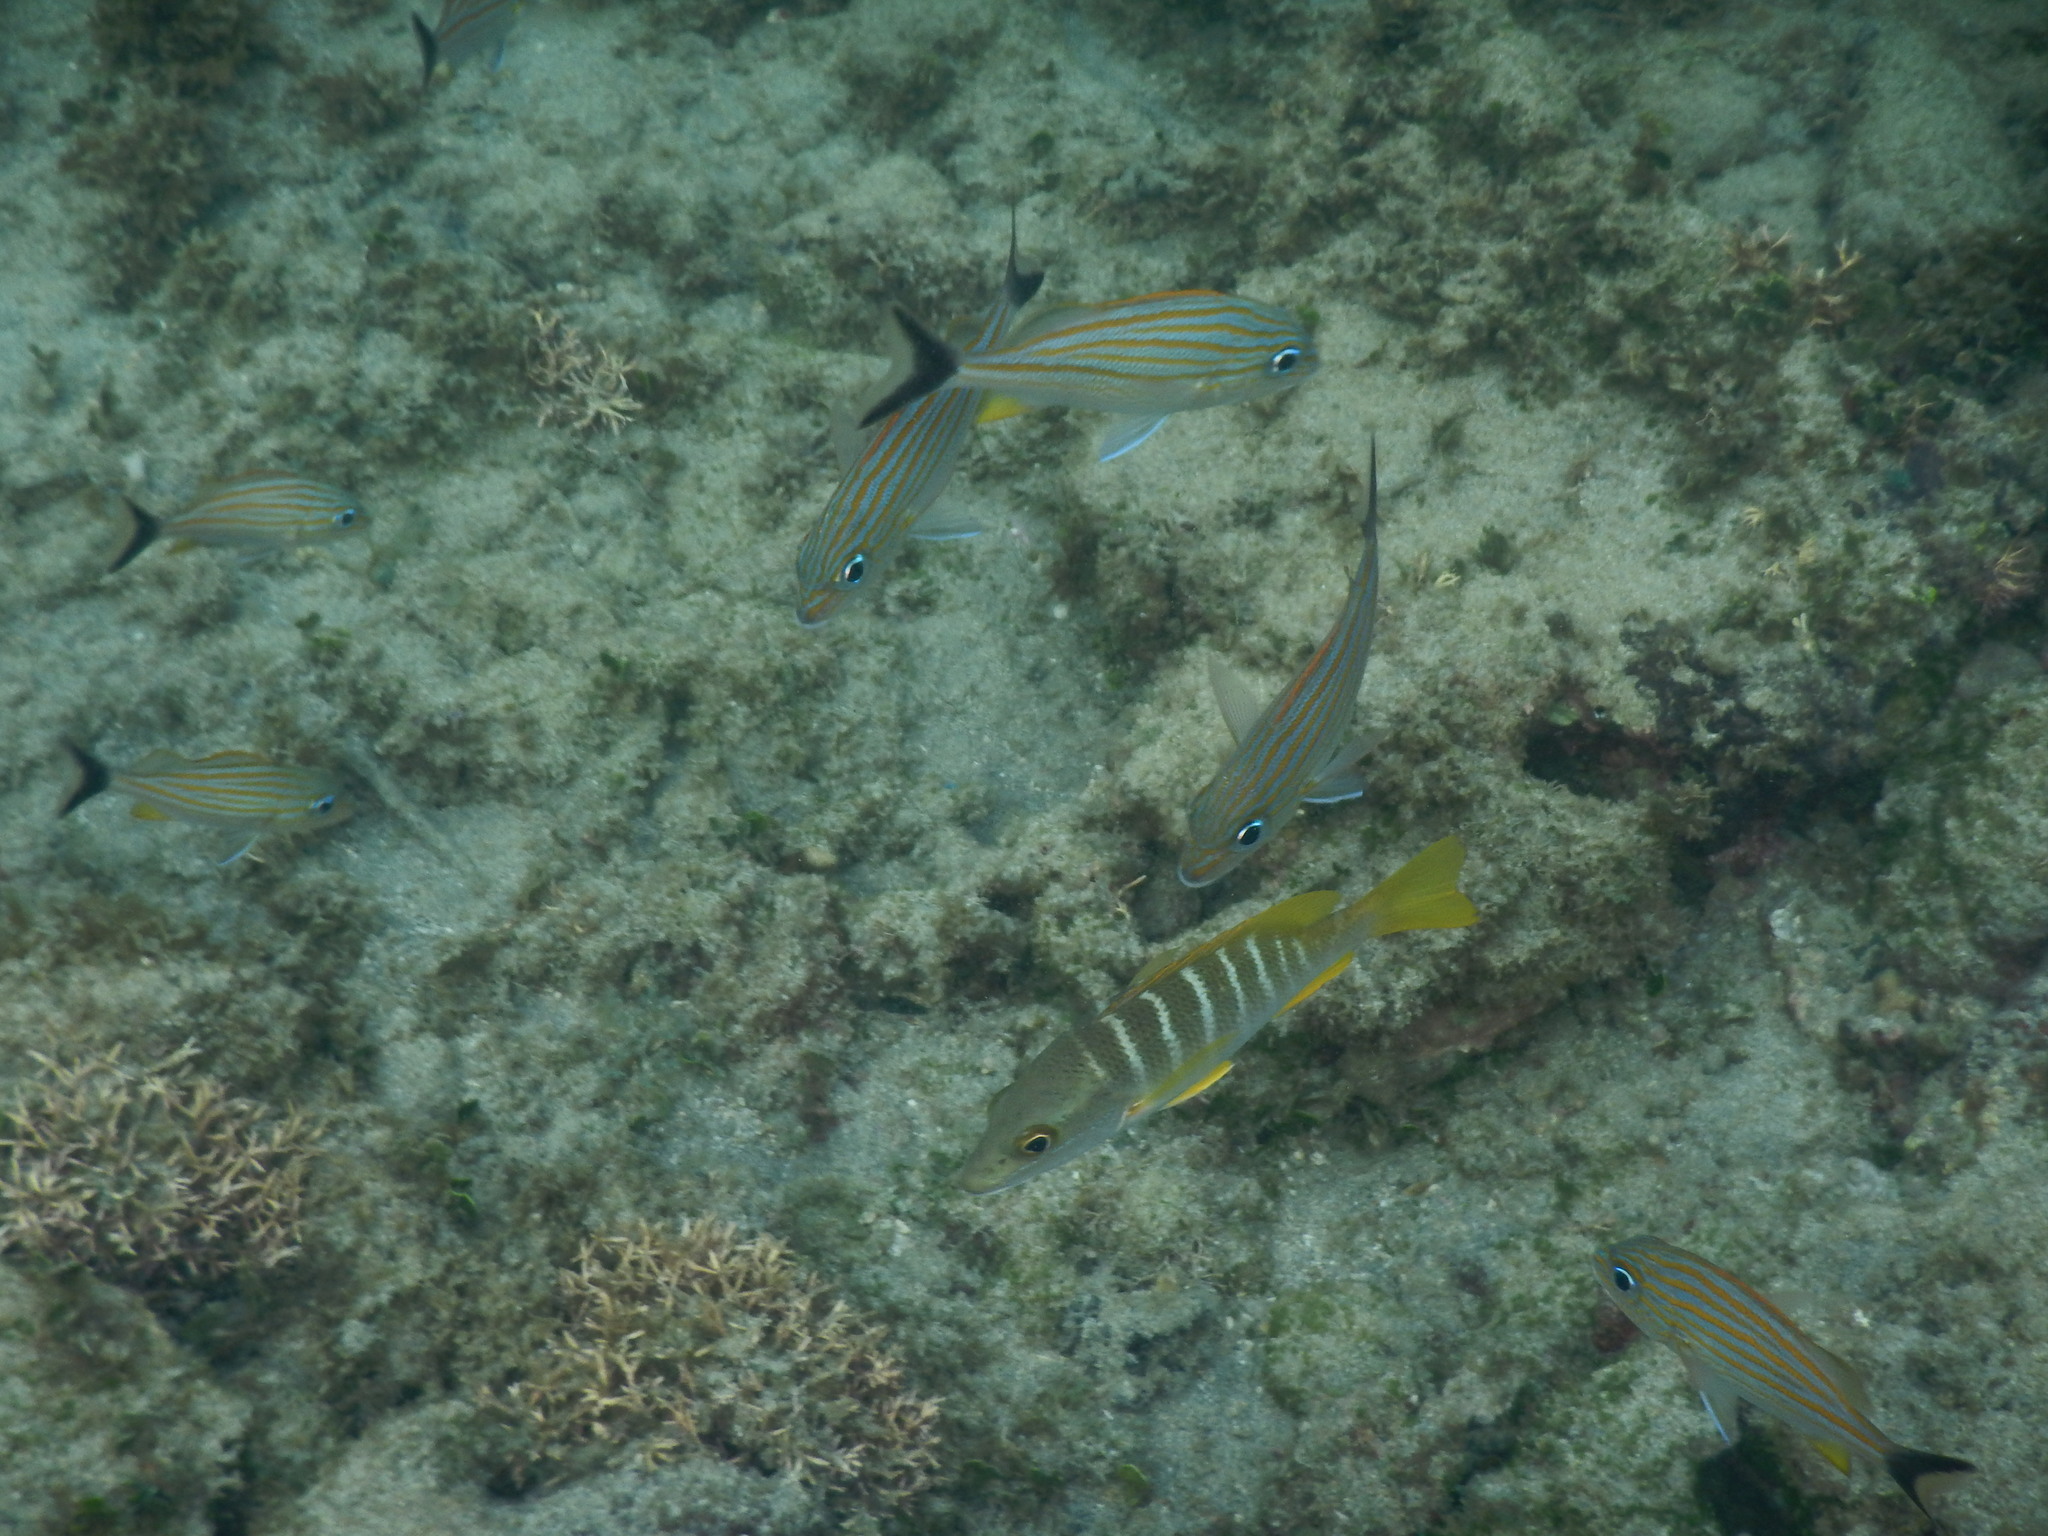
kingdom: Animalia
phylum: Chordata
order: Perciformes
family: Lutjanidae
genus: Lutjanus
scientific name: Lutjanus apodus
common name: Schoolmaster
